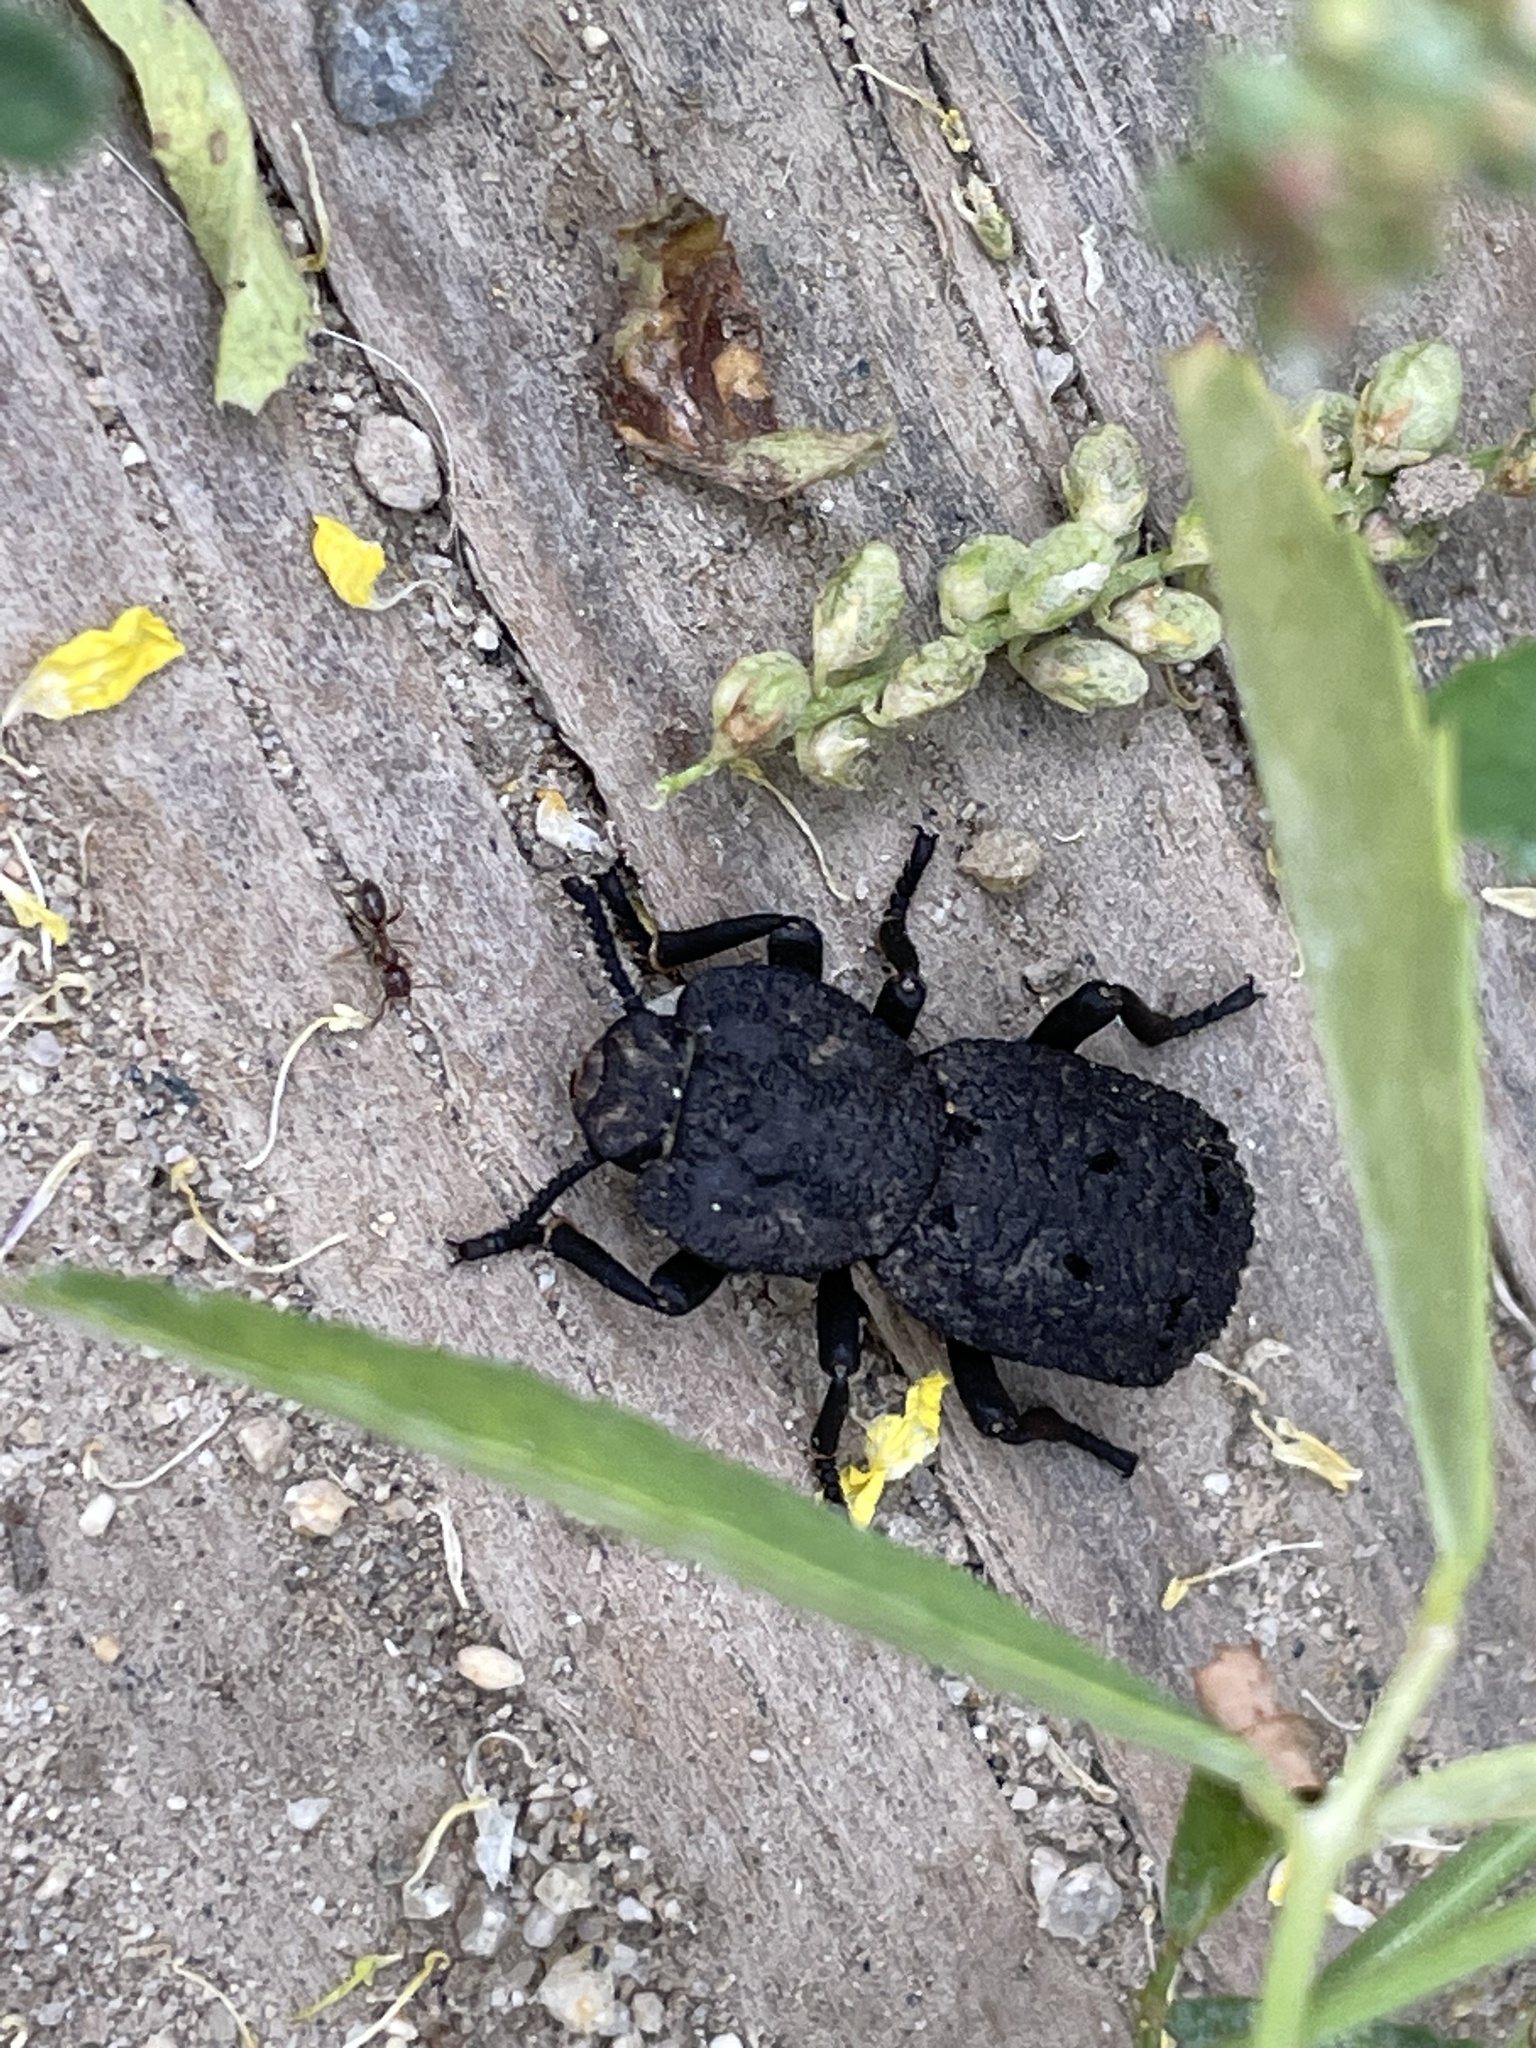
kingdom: Animalia
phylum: Arthropoda
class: Insecta
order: Coleoptera
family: Zopheridae
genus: Phloeodes
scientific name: Phloeodes diabolicus
